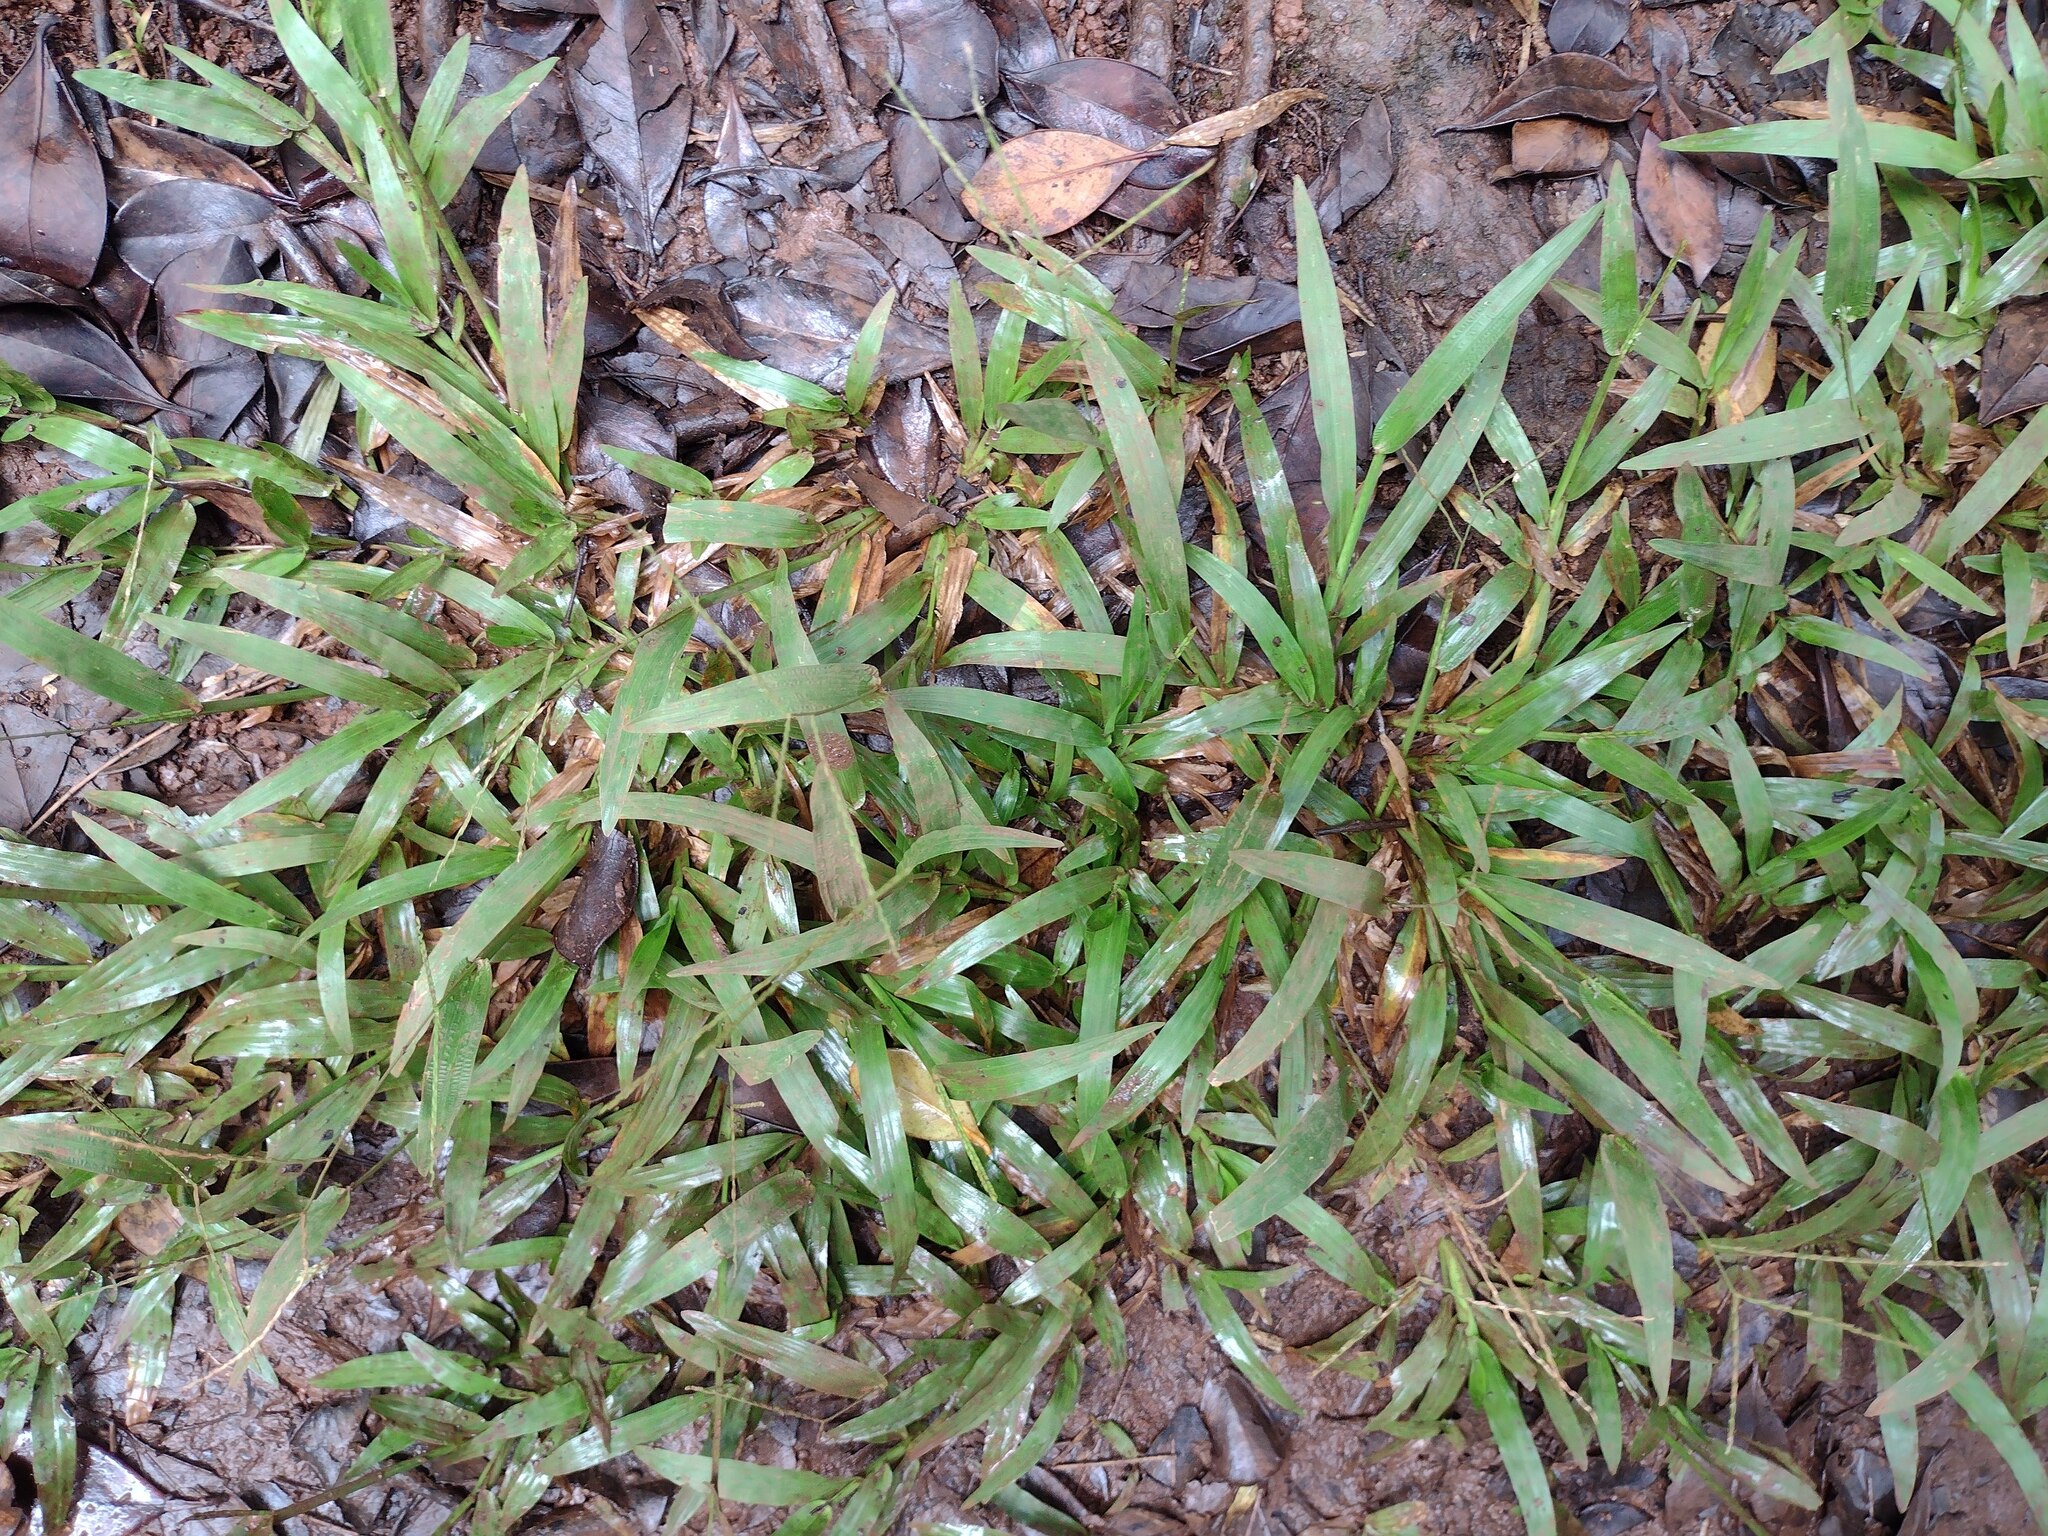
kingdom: Plantae
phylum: Tracheophyta
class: Liliopsida
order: Poales
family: Poaceae
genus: Axonopus
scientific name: Axonopus fissifolius
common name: Common carpetgrass
